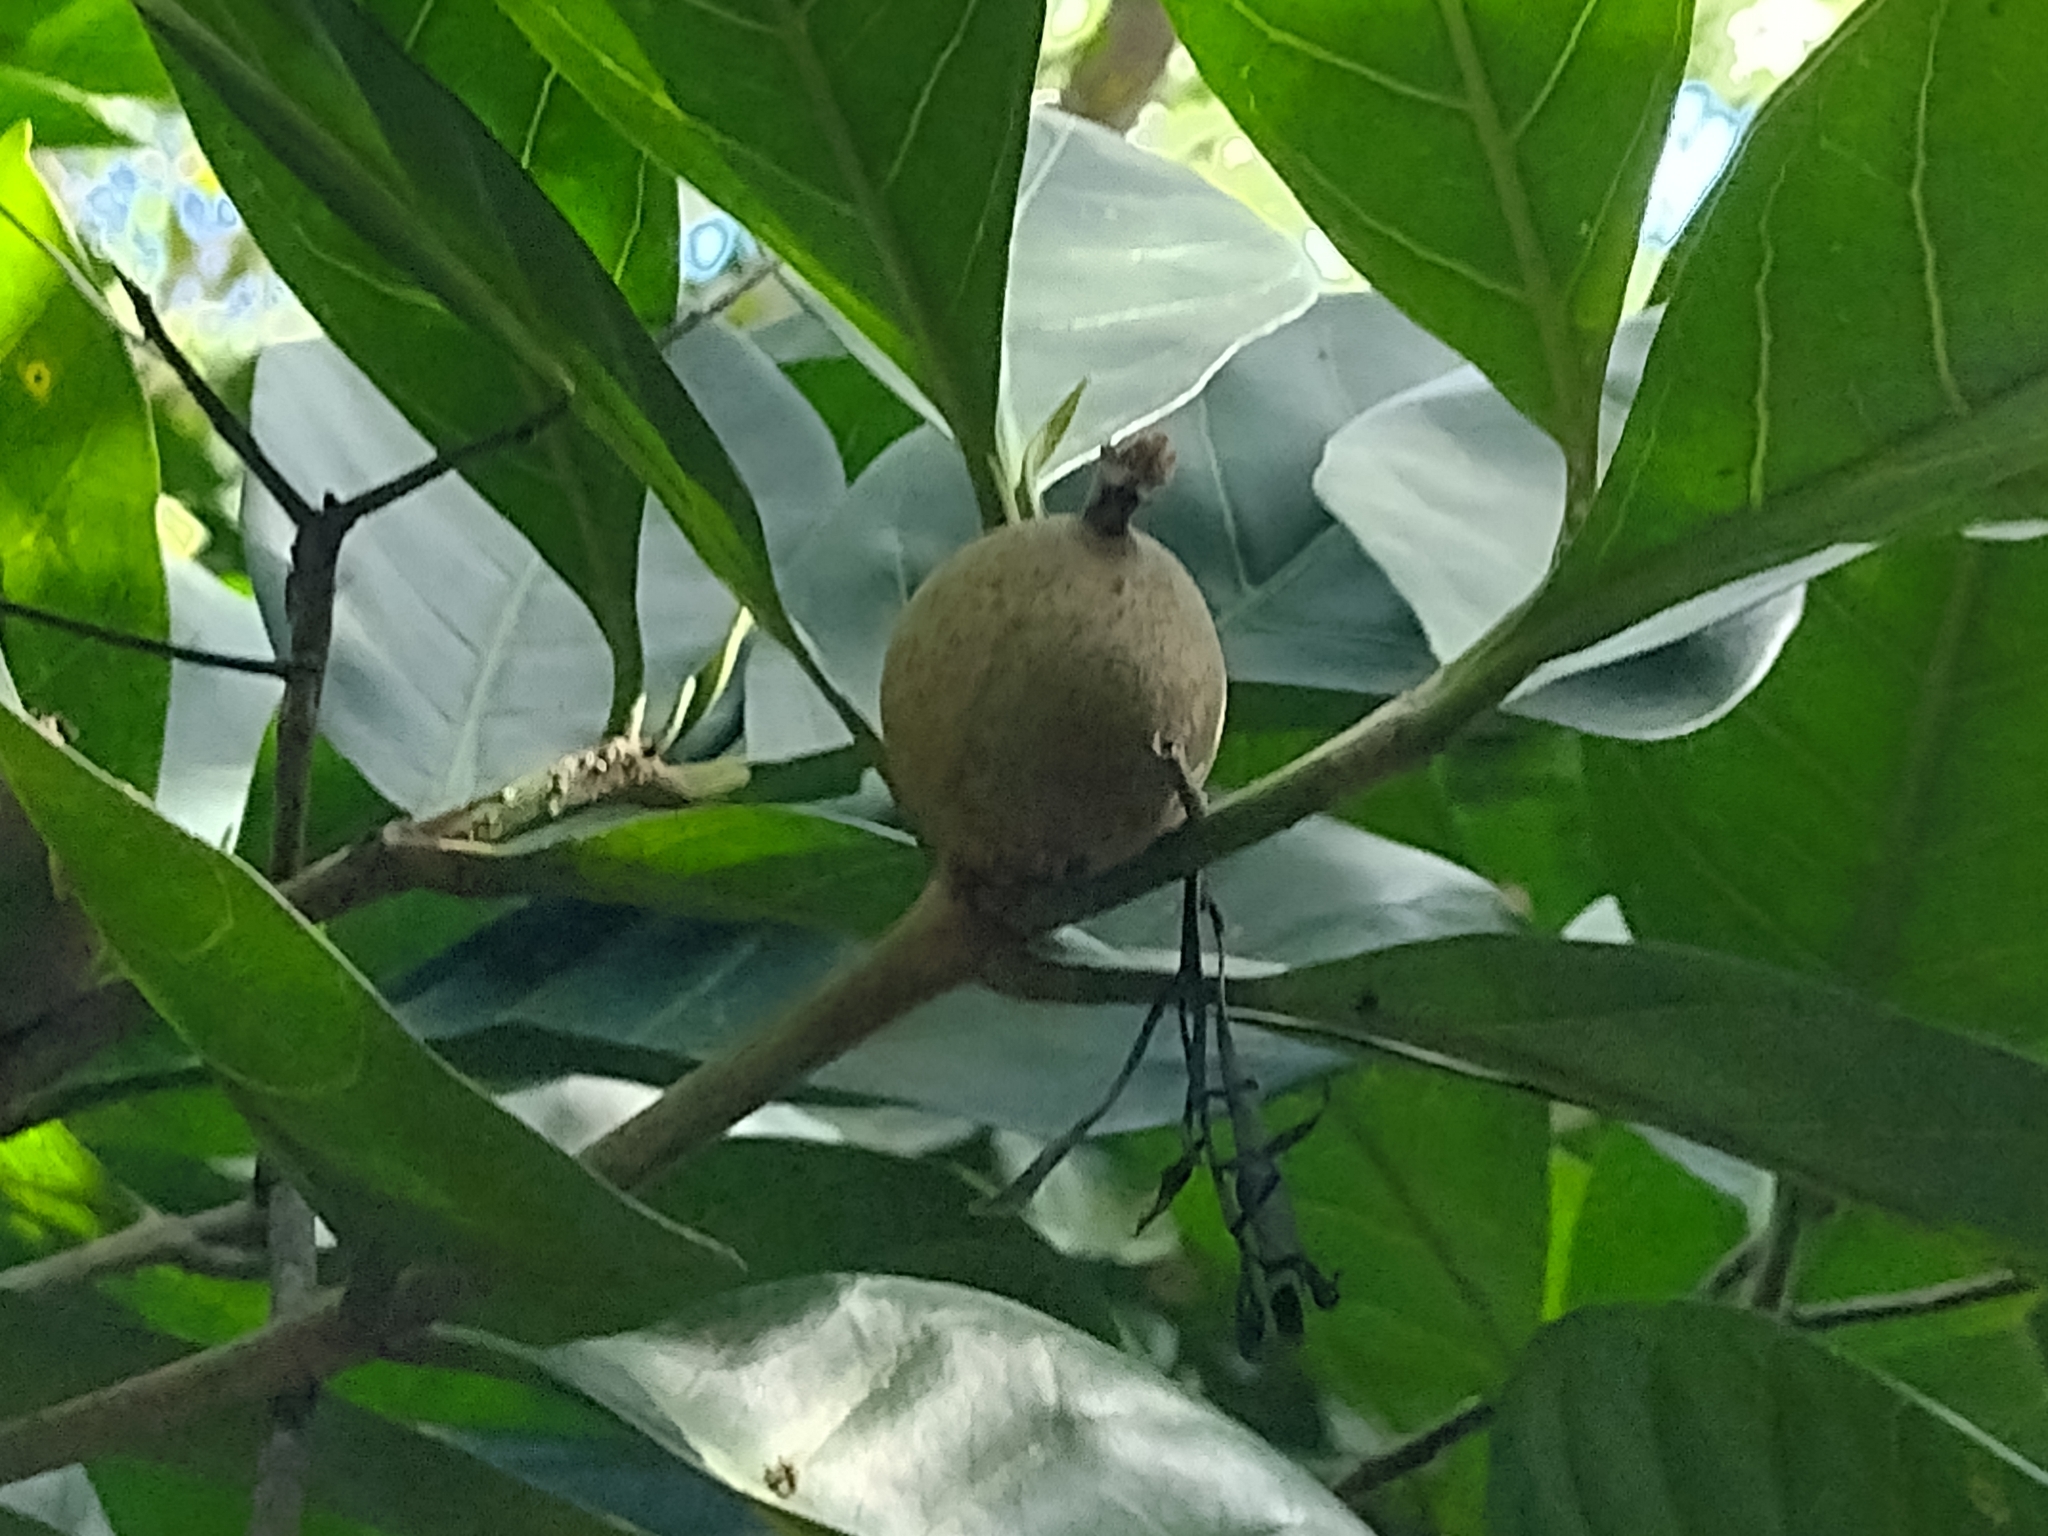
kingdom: Plantae
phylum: Tracheophyta
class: Magnoliopsida
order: Gentianales
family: Rubiaceae
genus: Atractocarpus
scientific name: Atractocarpus sessilis
